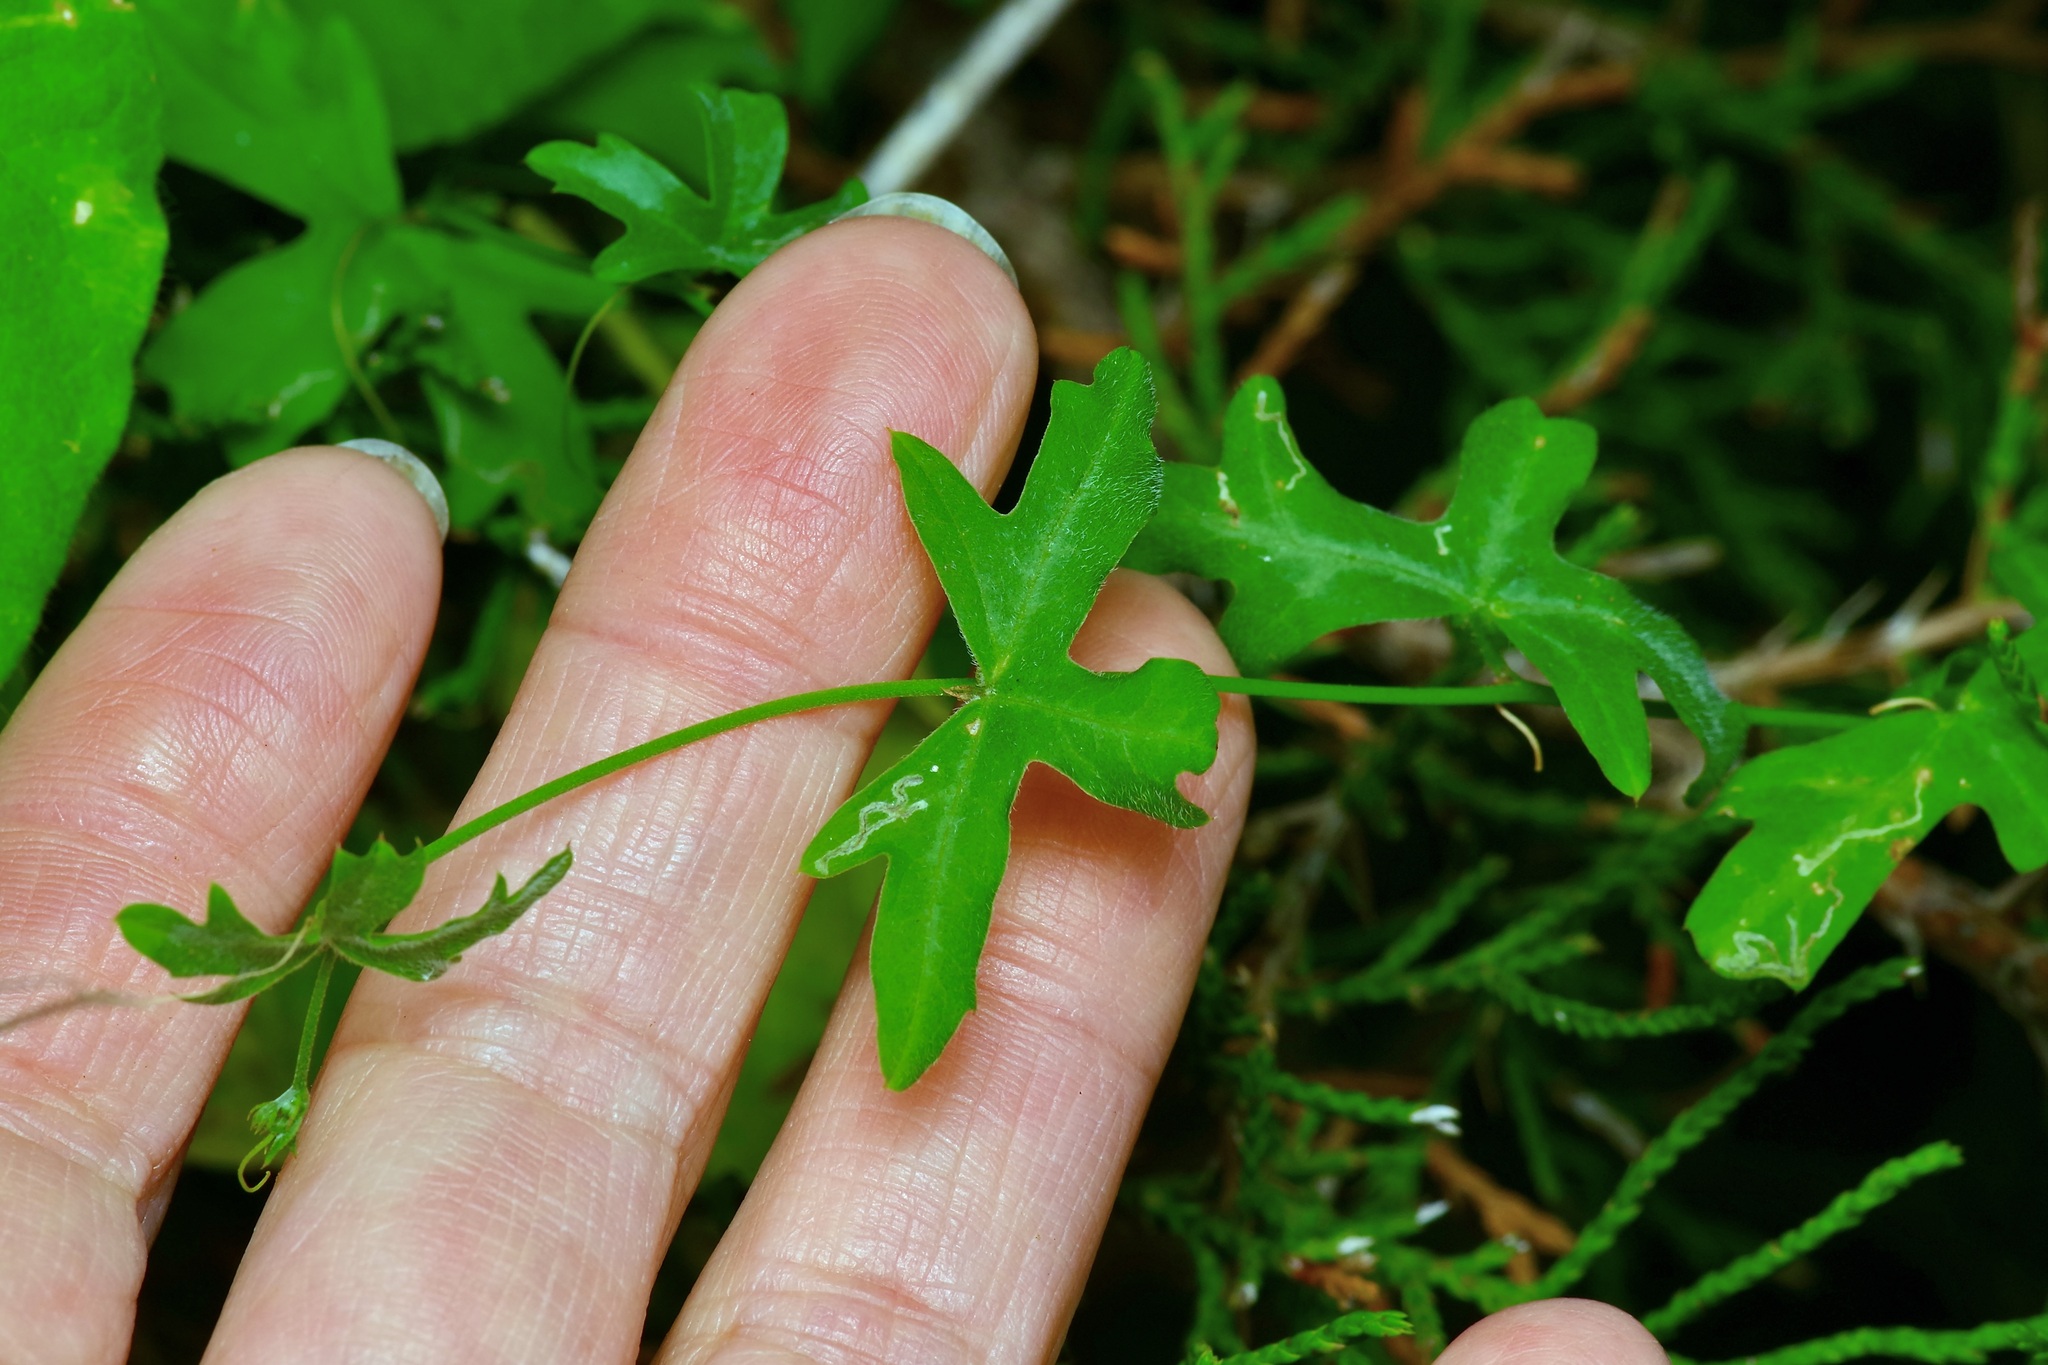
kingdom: Plantae
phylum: Tracheophyta
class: Magnoliopsida
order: Malpighiales
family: Passifloraceae
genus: Passiflora
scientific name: Passiflora tenuiloba
